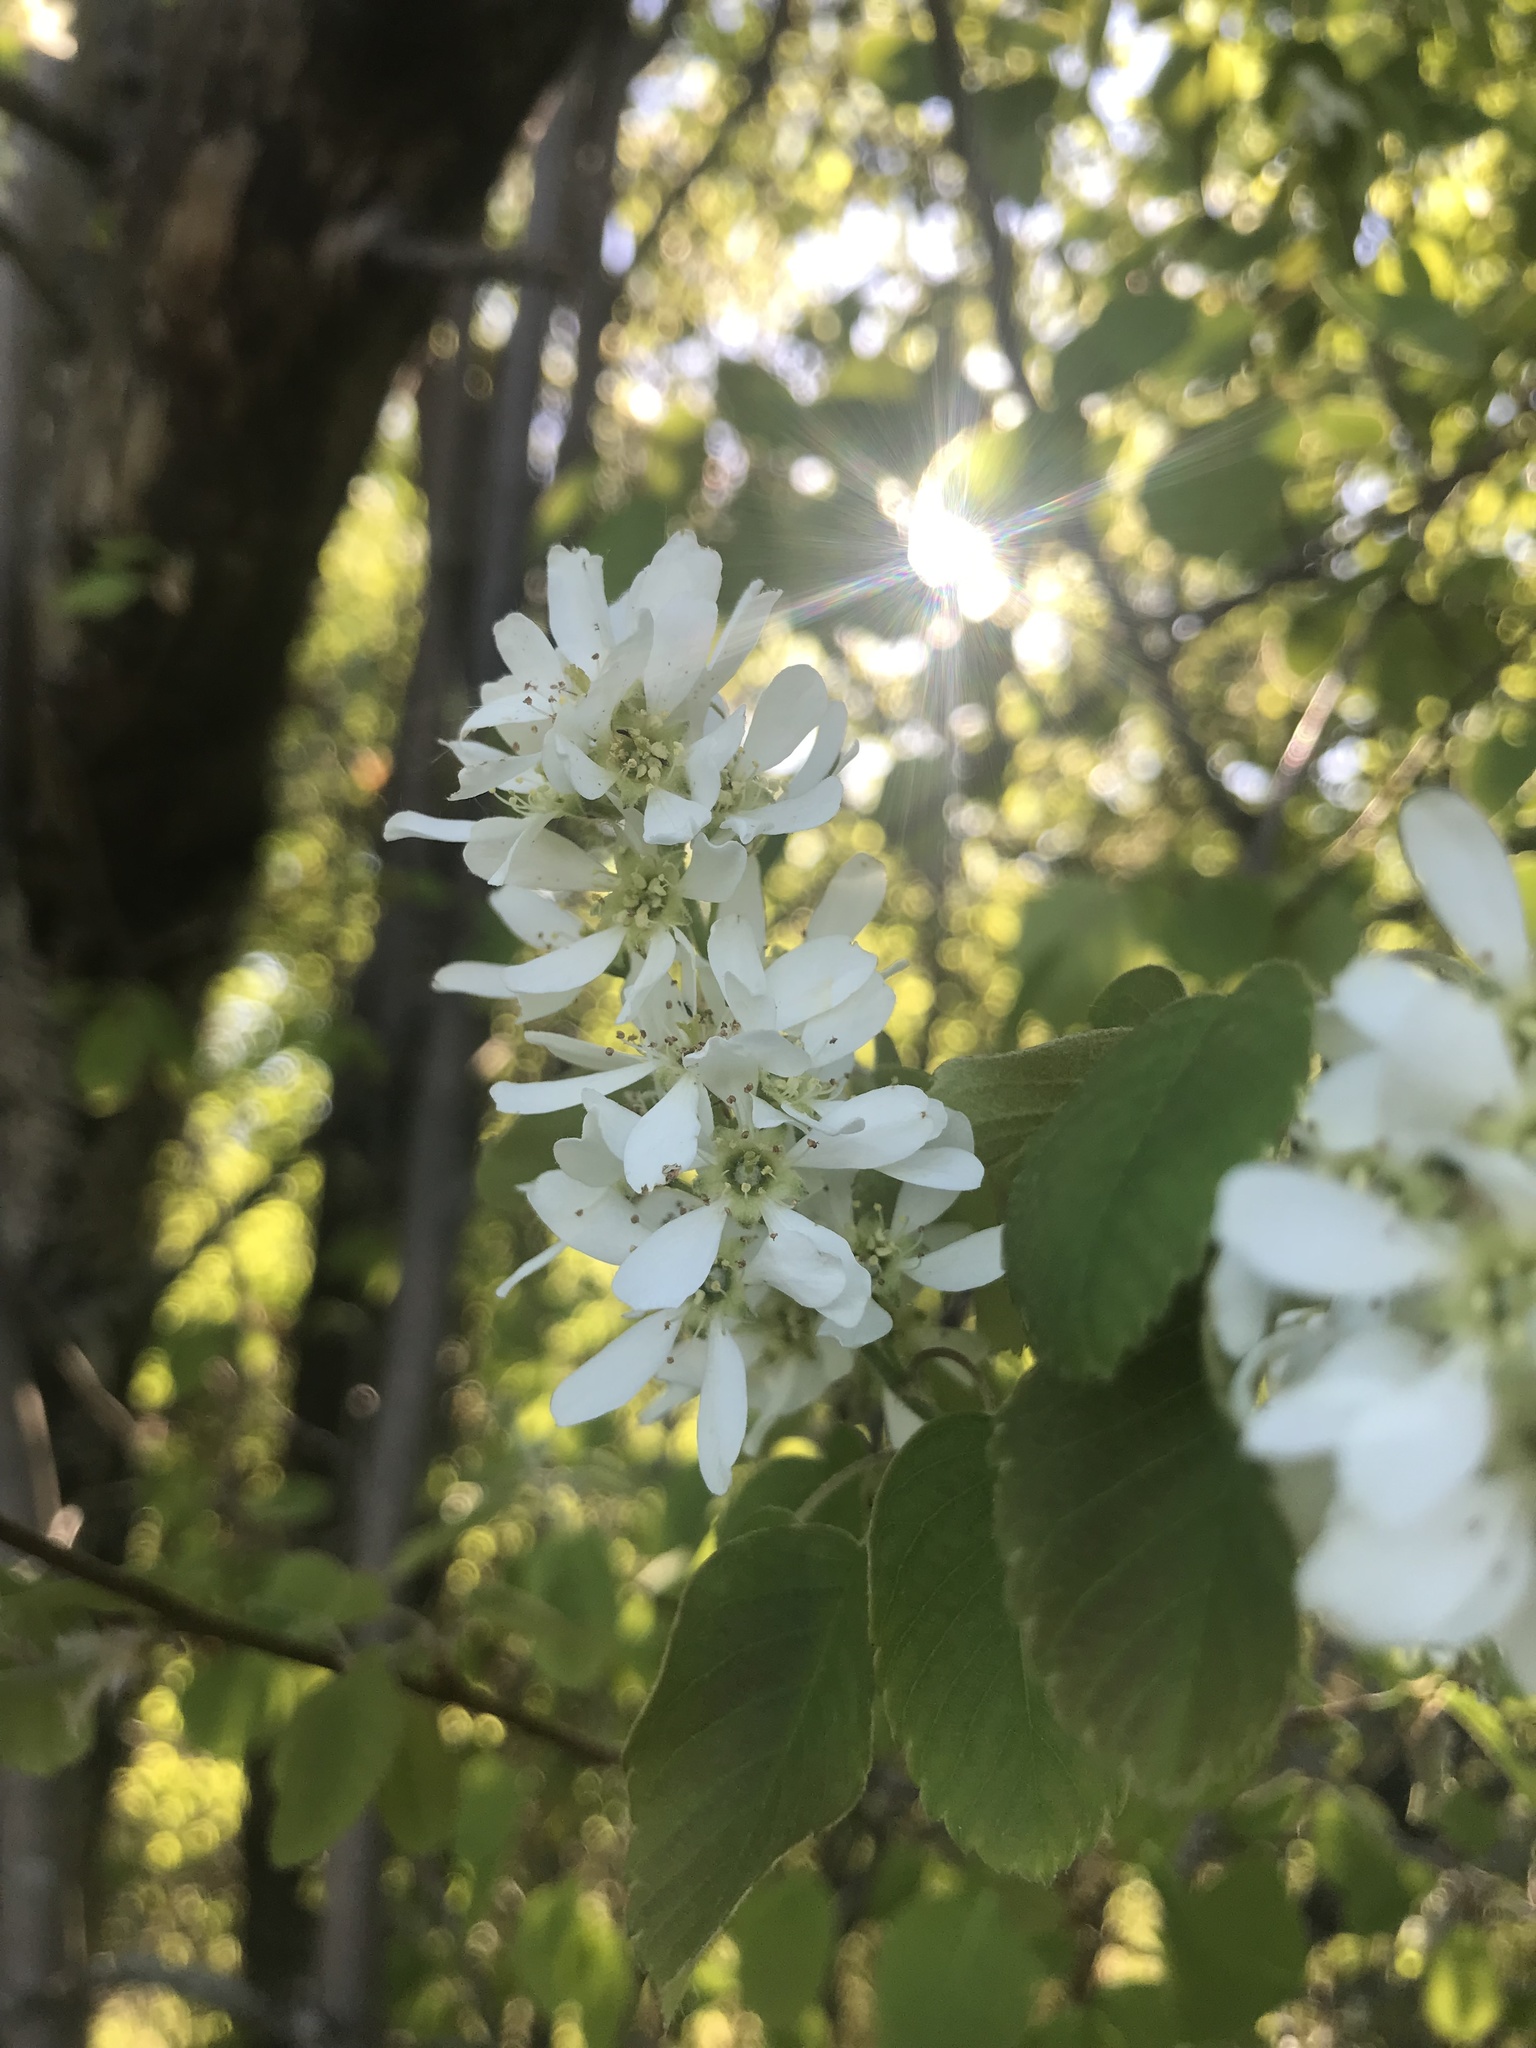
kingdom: Plantae
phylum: Tracheophyta
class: Magnoliopsida
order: Rosales
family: Rosaceae
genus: Amelanchier
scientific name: Amelanchier alnifolia
